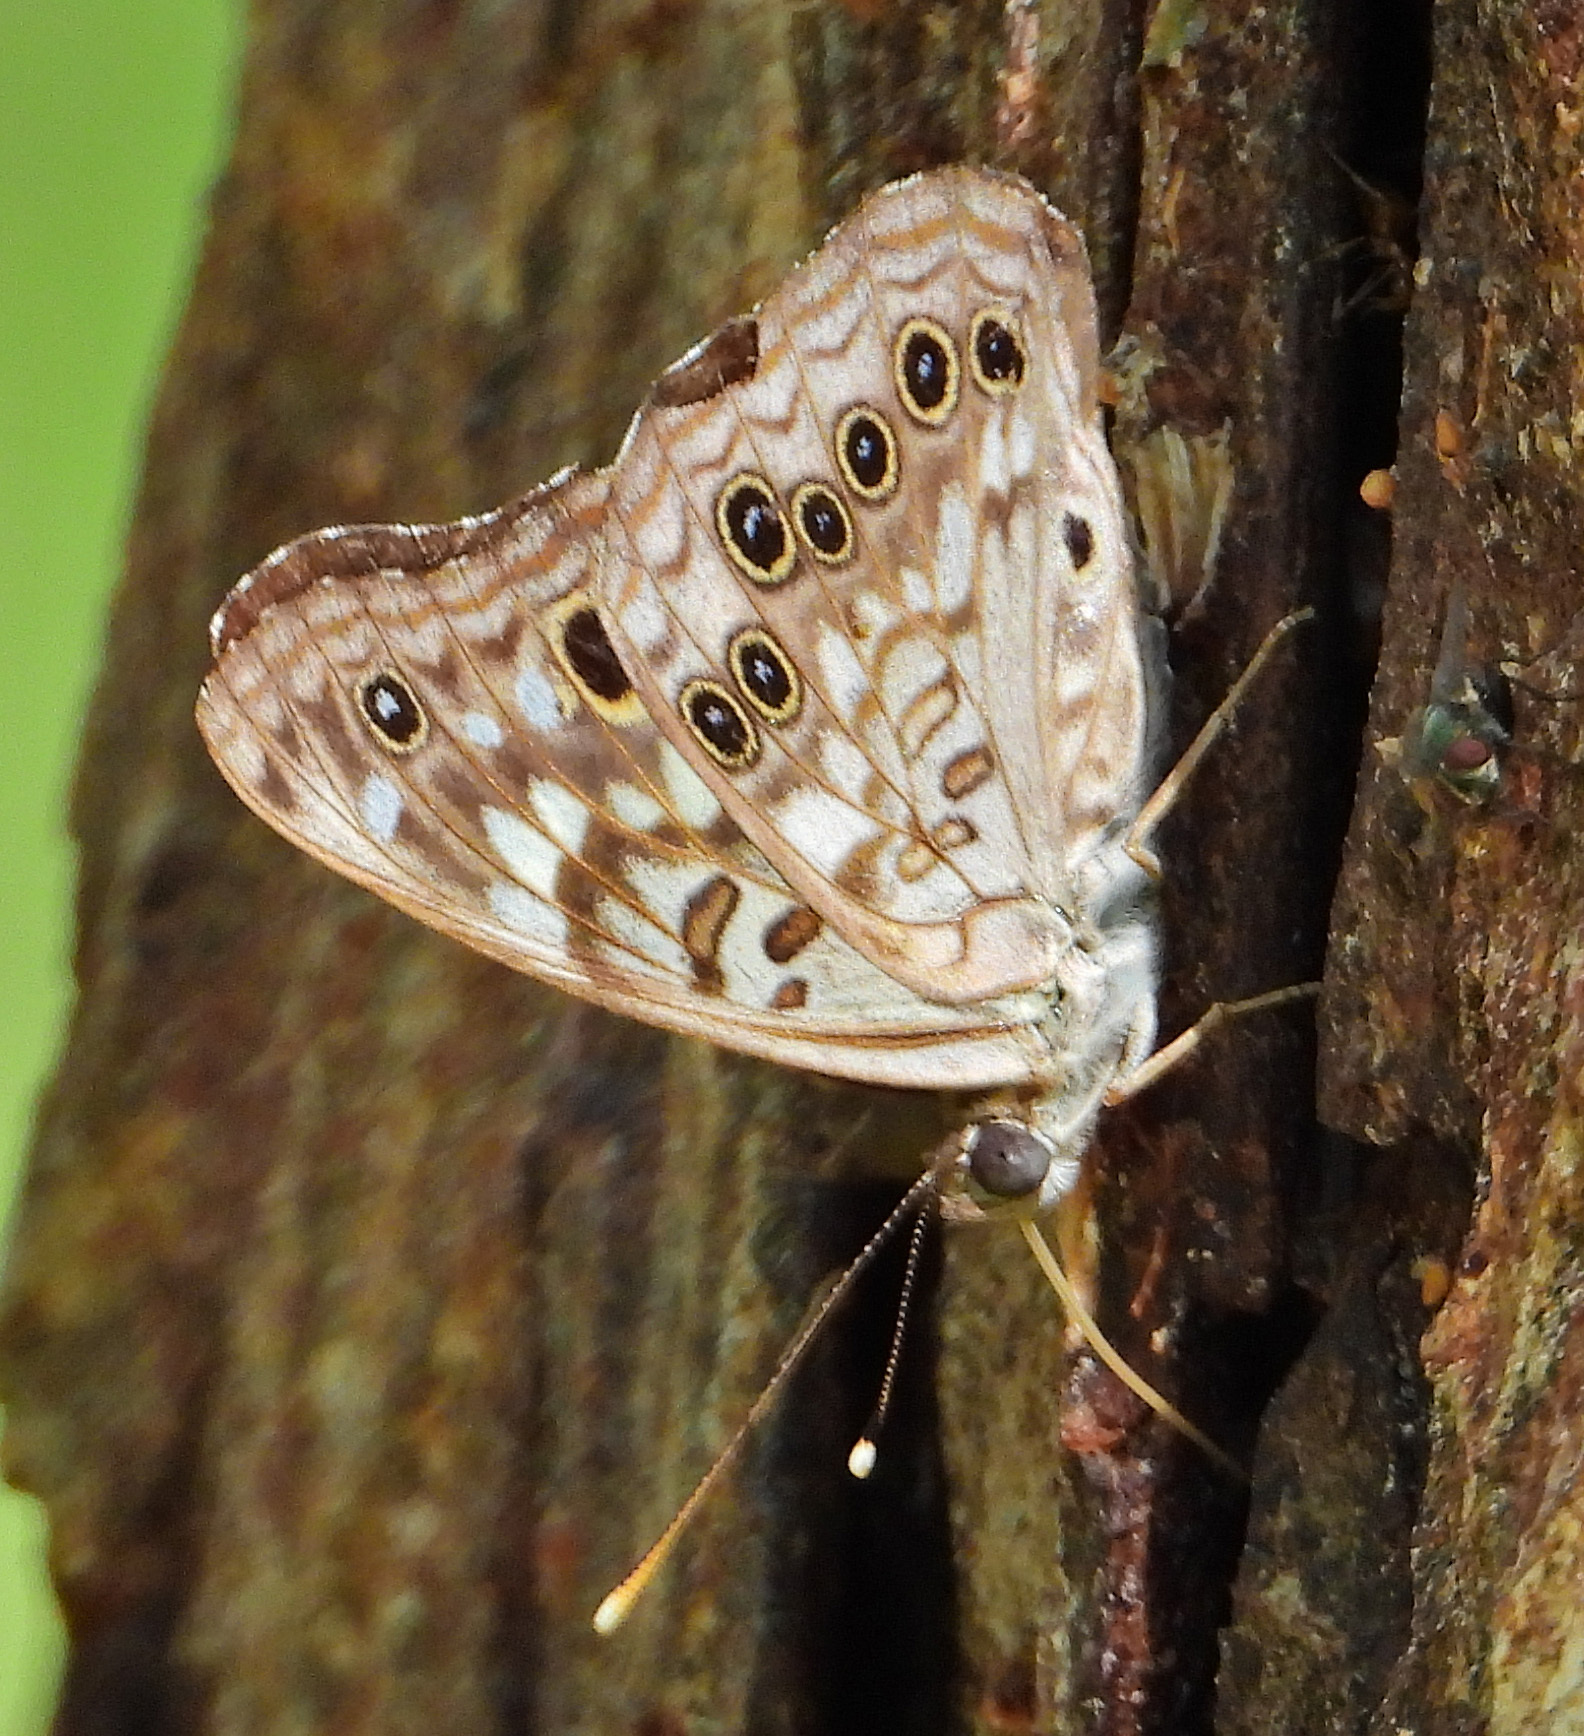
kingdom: Animalia
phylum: Arthropoda
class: Insecta
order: Lepidoptera
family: Nymphalidae
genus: Asterocampa
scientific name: Asterocampa celtis
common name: Hackberry emperor
